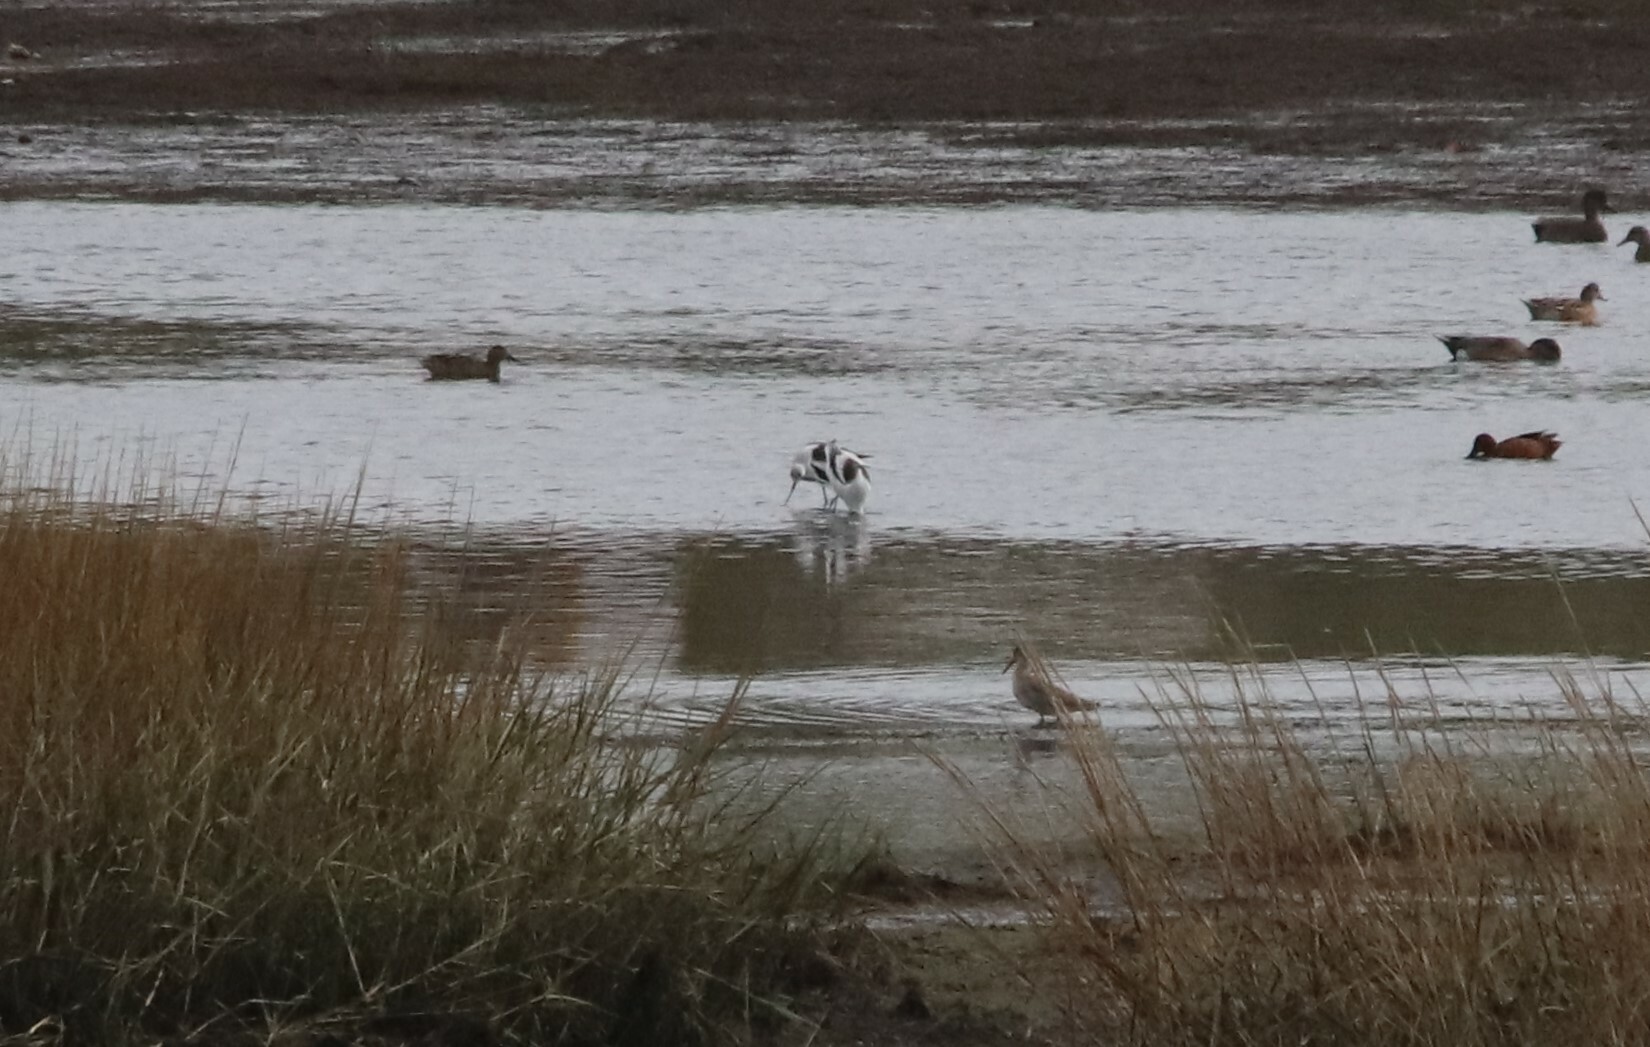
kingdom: Animalia
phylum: Chordata
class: Aves
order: Charadriiformes
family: Recurvirostridae
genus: Recurvirostra
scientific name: Recurvirostra americana
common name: American avocet
